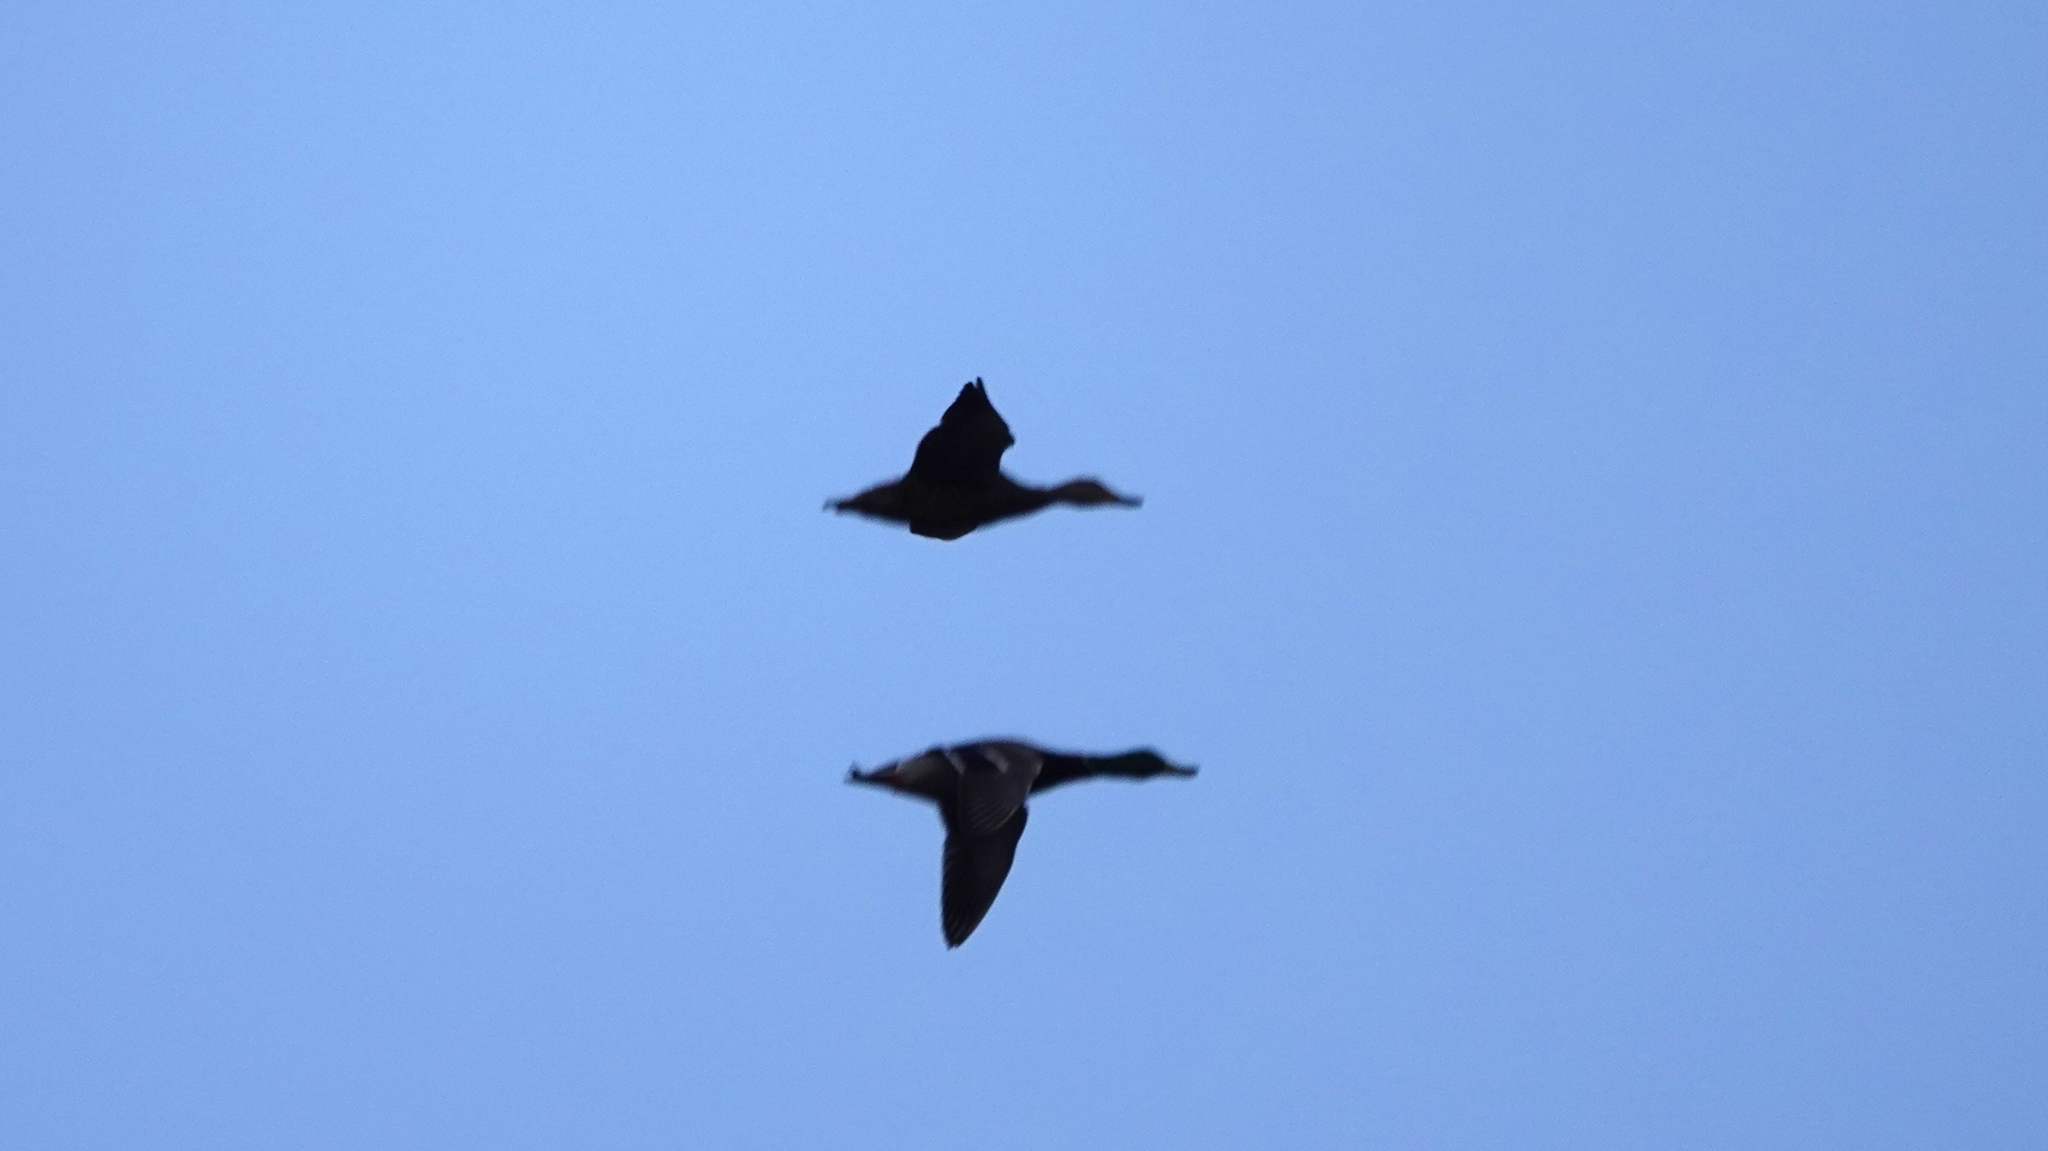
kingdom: Animalia
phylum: Chordata
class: Aves
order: Anseriformes
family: Anatidae
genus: Anas
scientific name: Anas platyrhynchos
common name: Mallard
